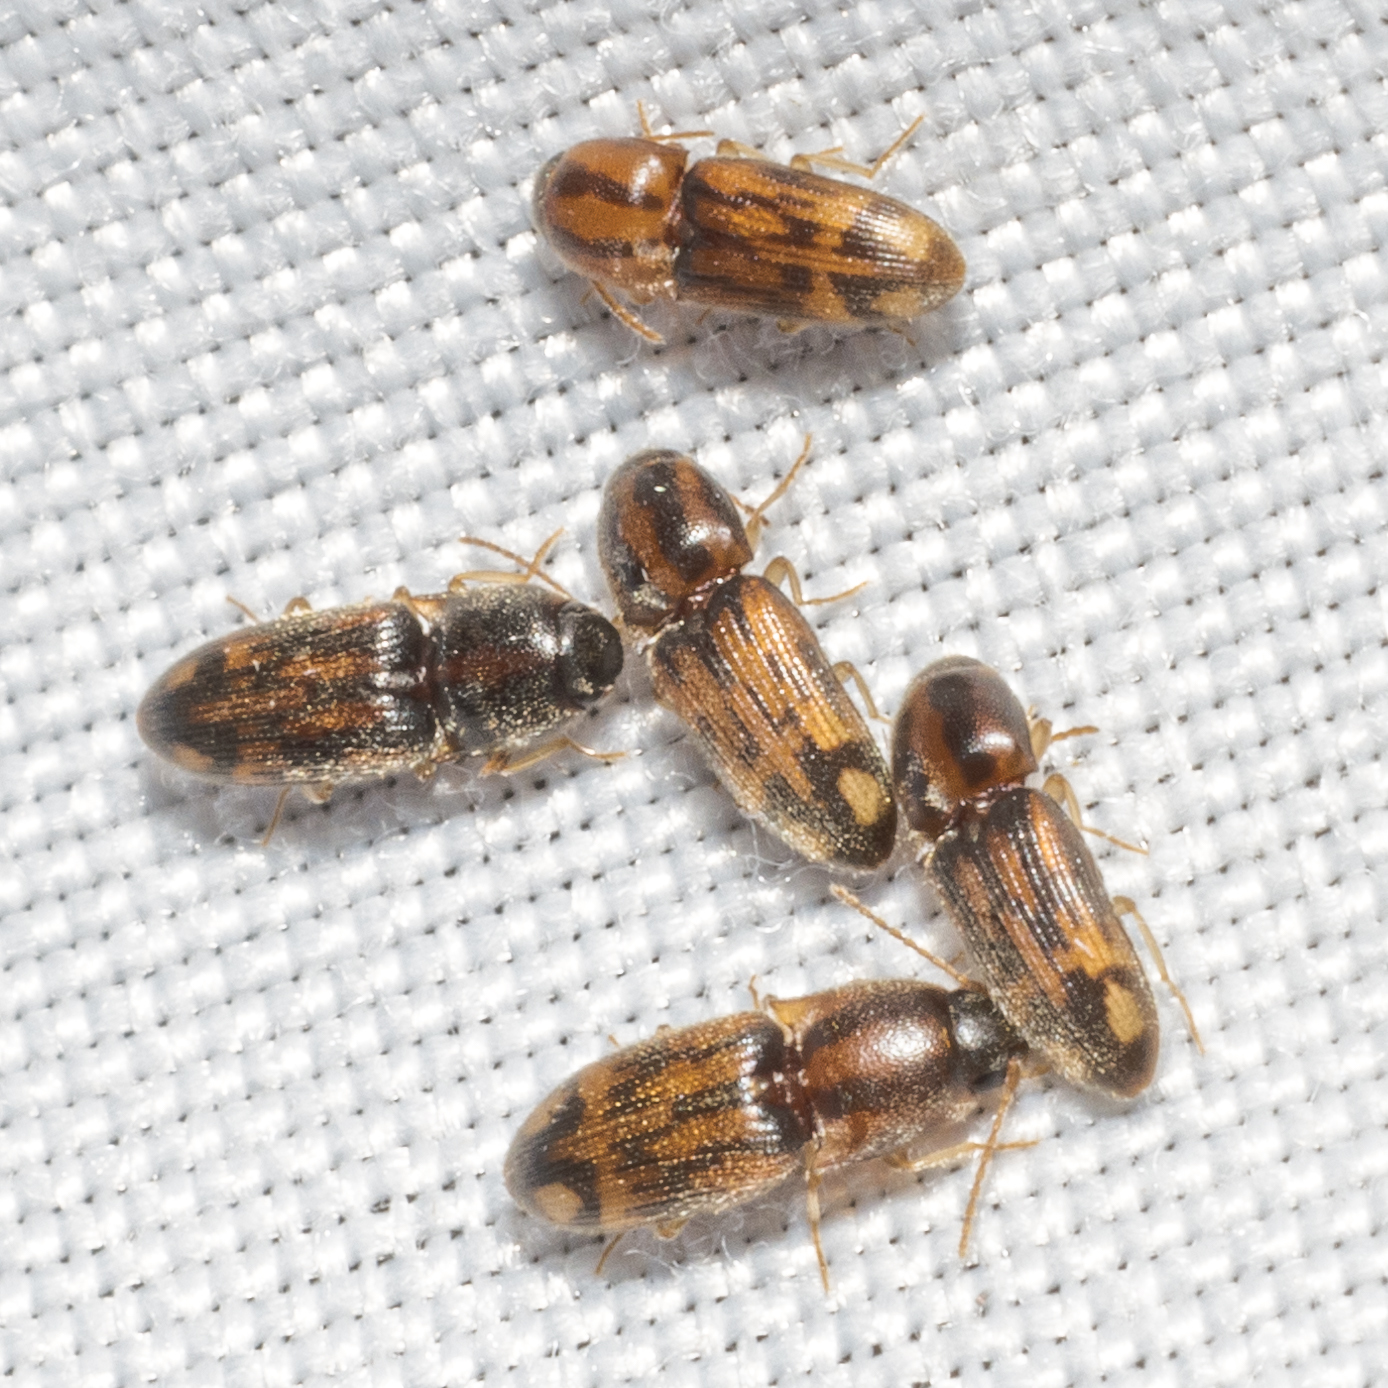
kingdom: Animalia
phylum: Arthropoda
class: Insecta
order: Coleoptera
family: Elateridae
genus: Monocrepidius
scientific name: Monocrepidius bellus
